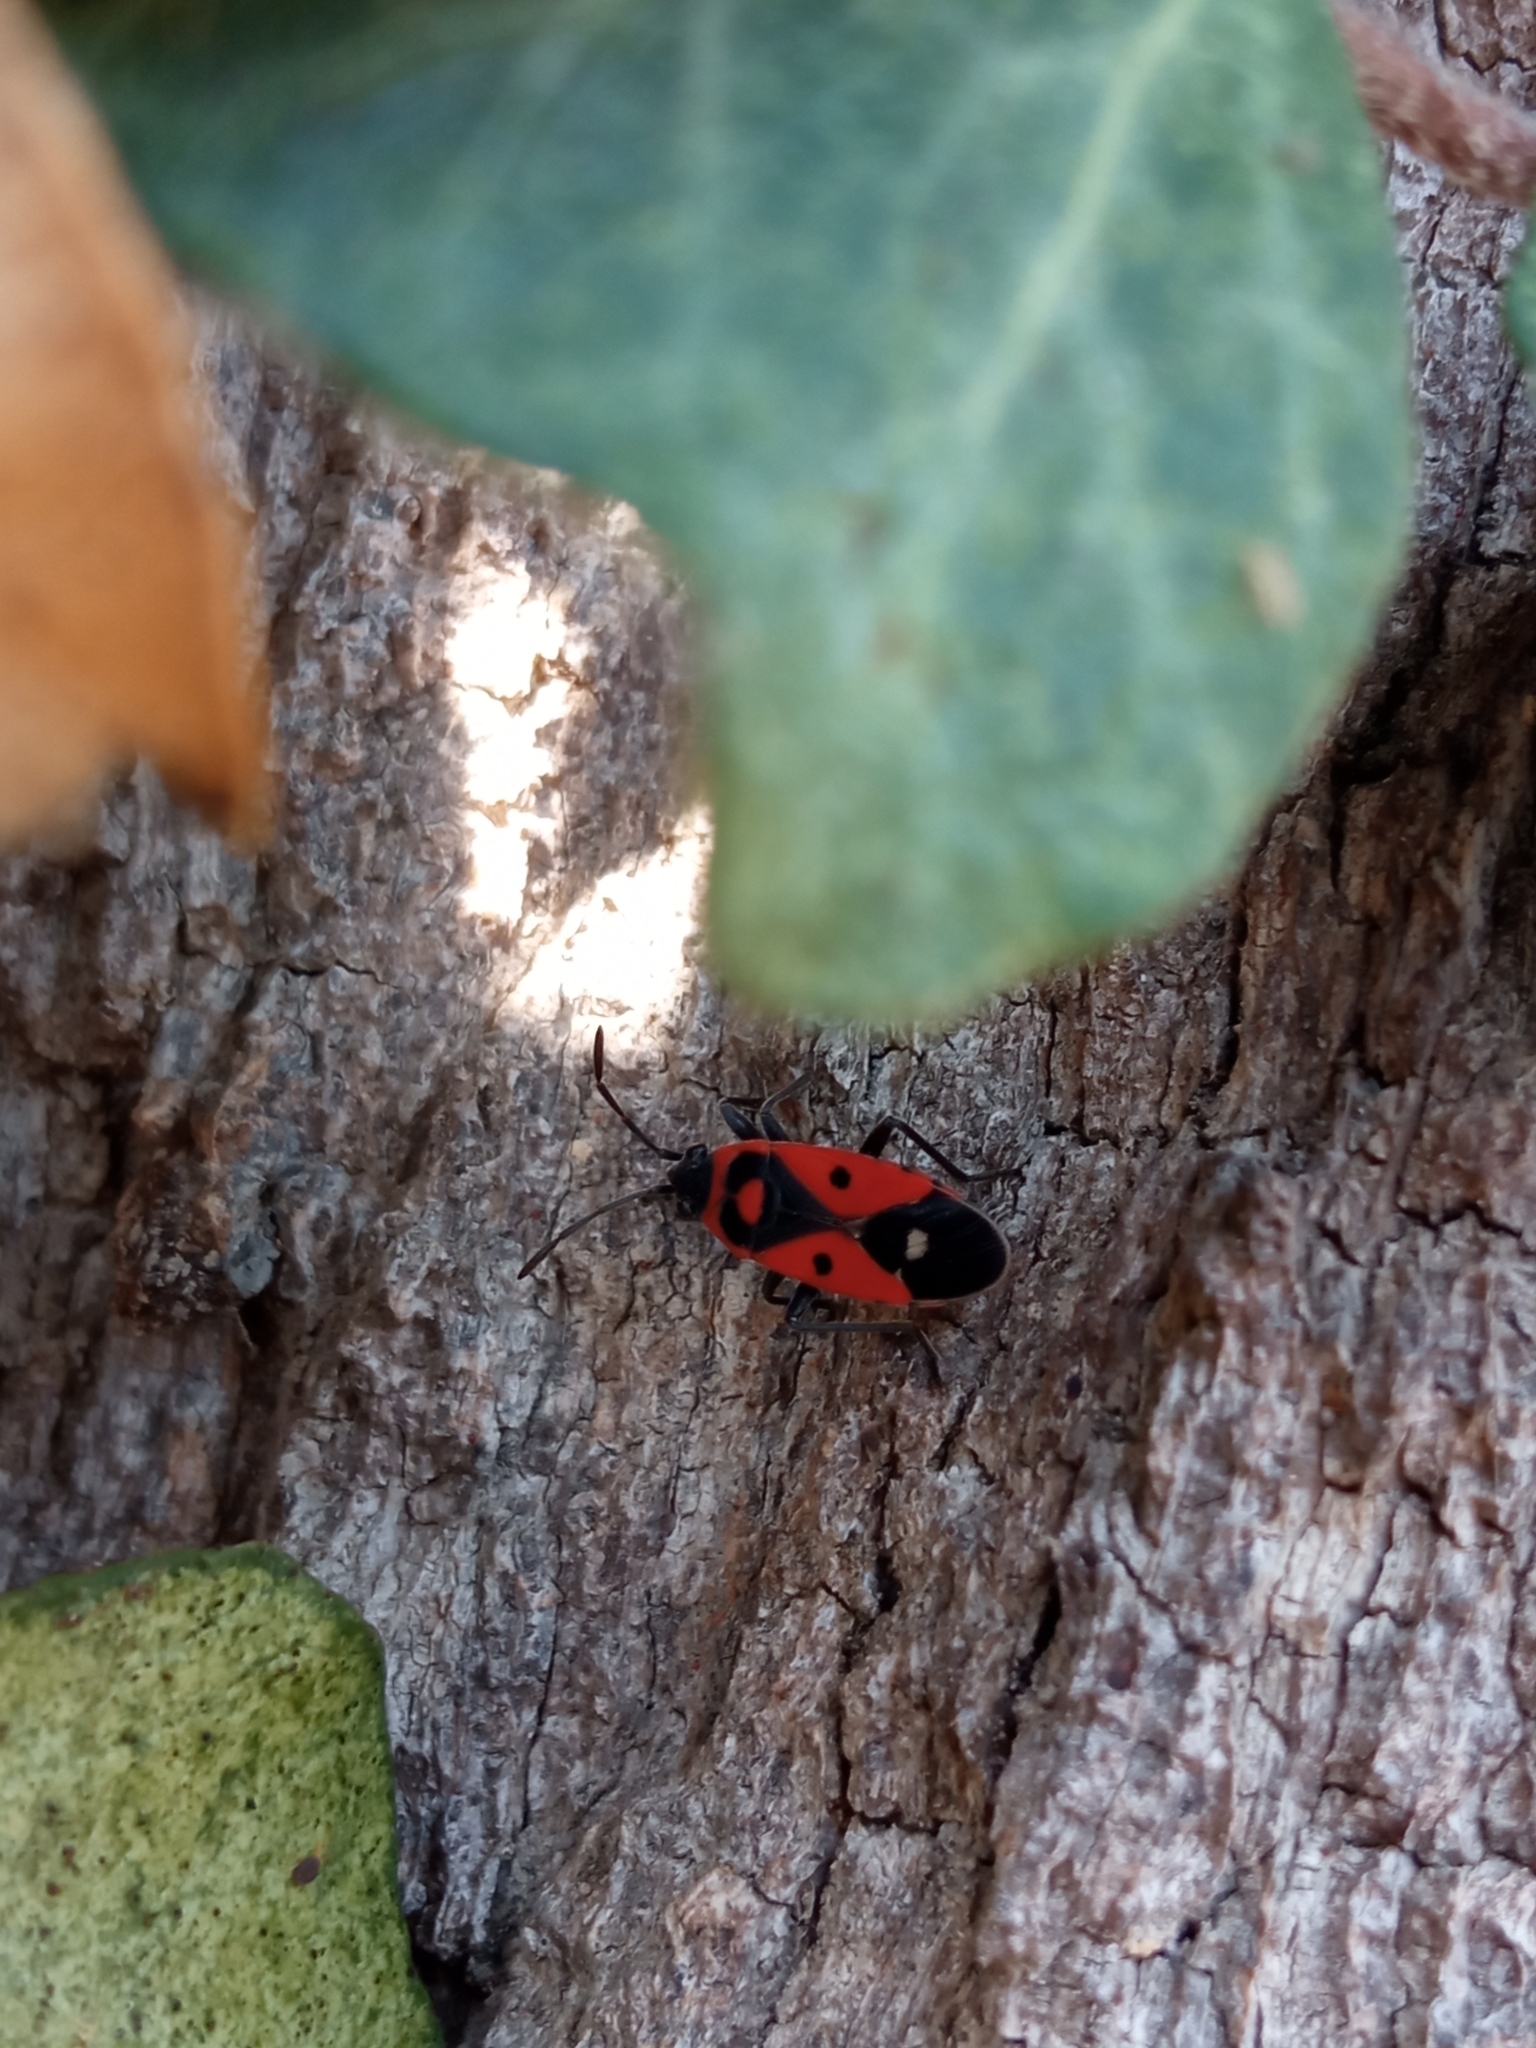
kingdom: Animalia
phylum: Arthropoda
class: Insecta
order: Hemiptera
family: Lygaeidae
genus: Melanocoryphus
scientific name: Melanocoryphus albomaculatus
